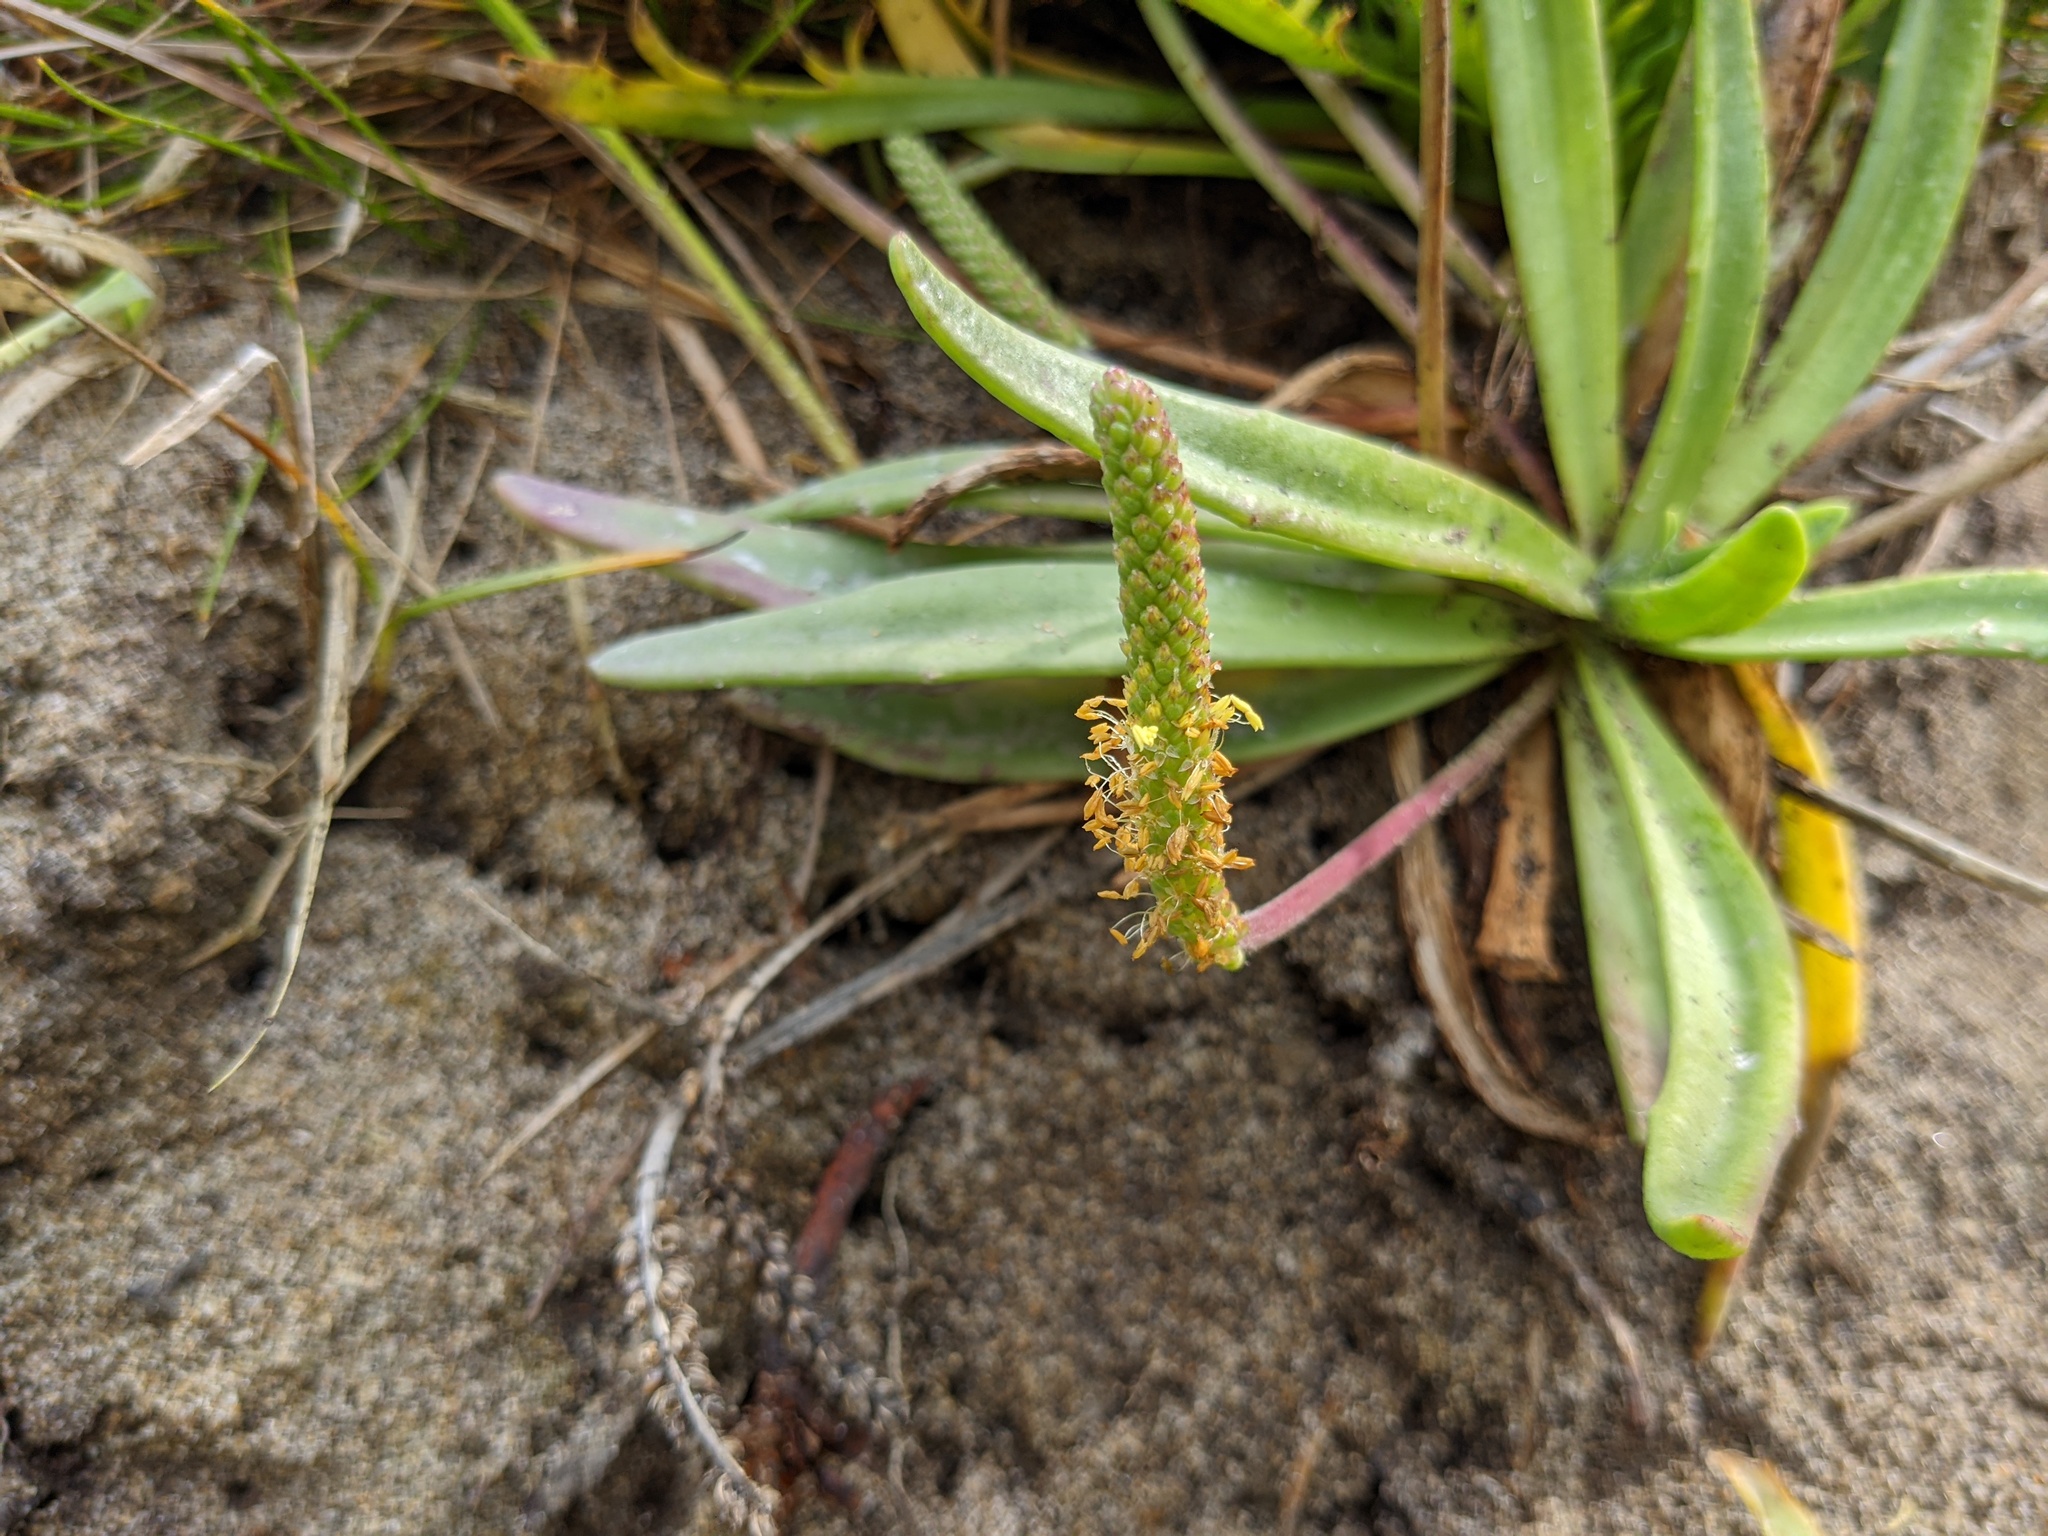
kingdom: Plantae
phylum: Tracheophyta
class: Magnoliopsida
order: Lamiales
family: Plantaginaceae
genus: Plantago
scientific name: Plantago maritima
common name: Sea plantain
